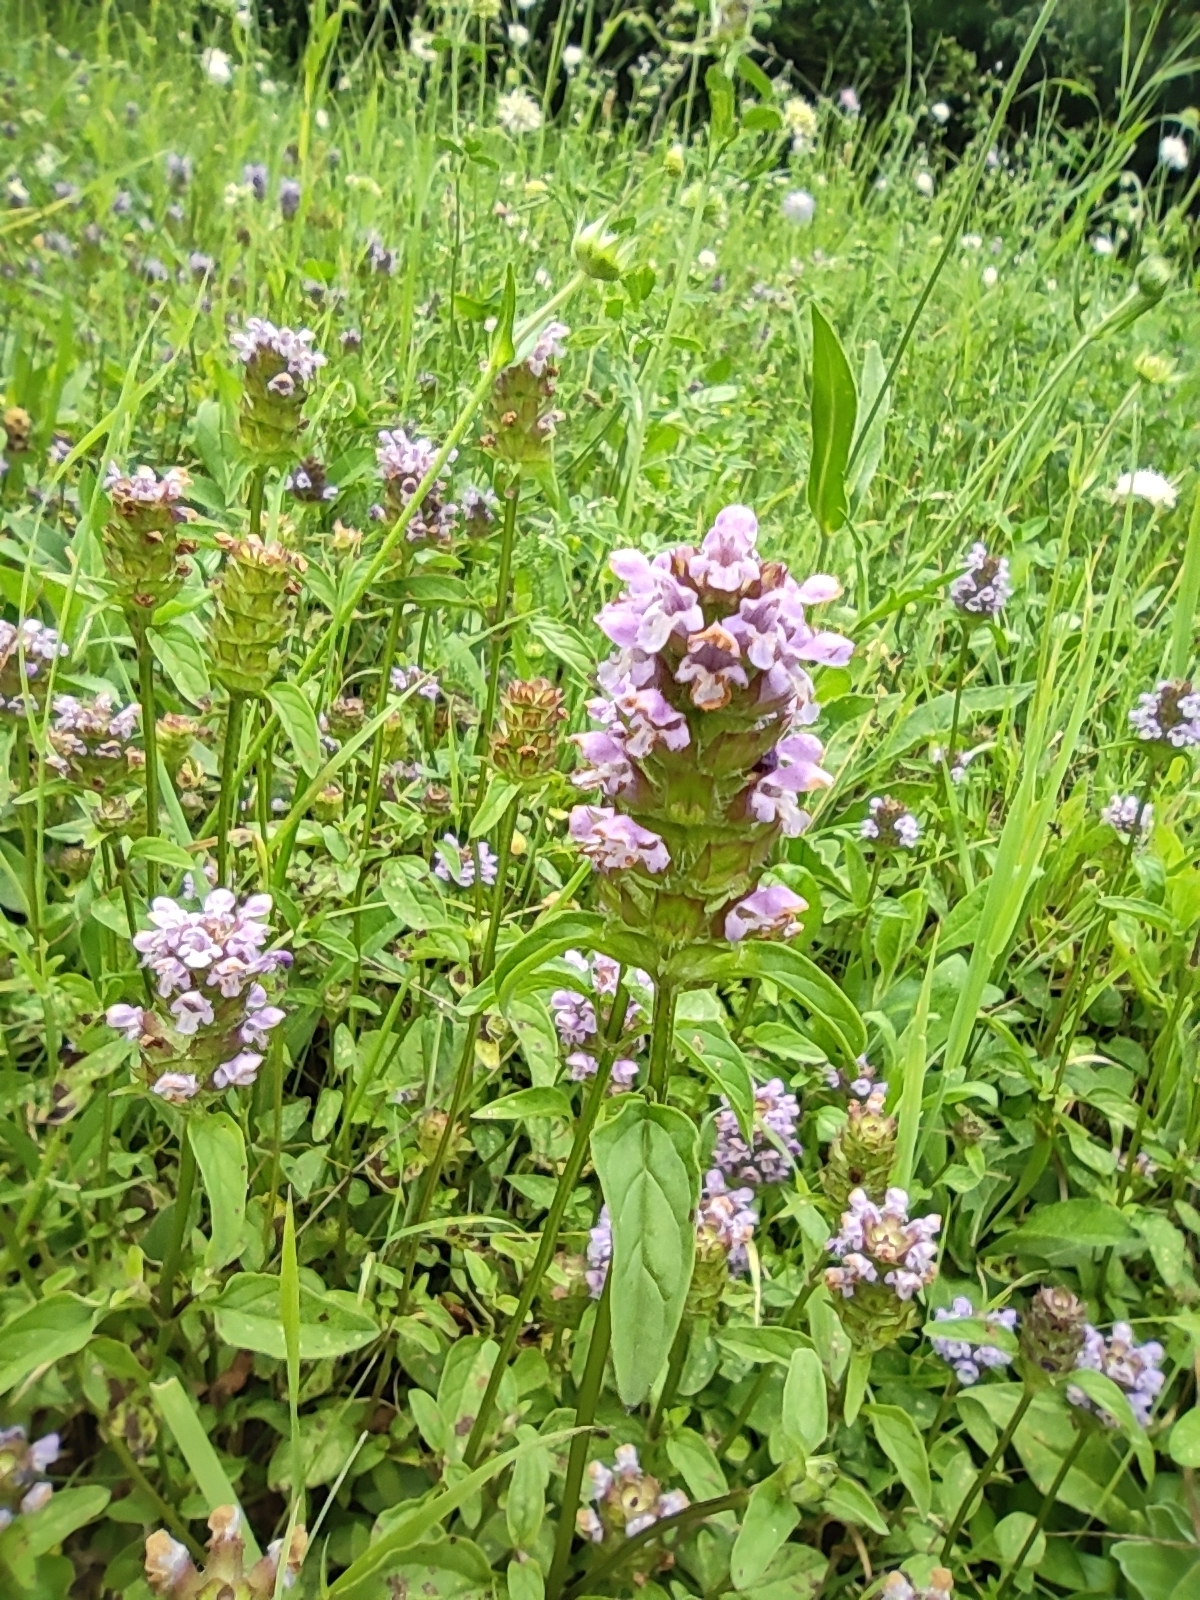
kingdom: Plantae
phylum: Tracheophyta
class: Magnoliopsida
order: Lamiales
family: Lamiaceae
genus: Prunella
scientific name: Prunella vulgaris
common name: Heal-all
